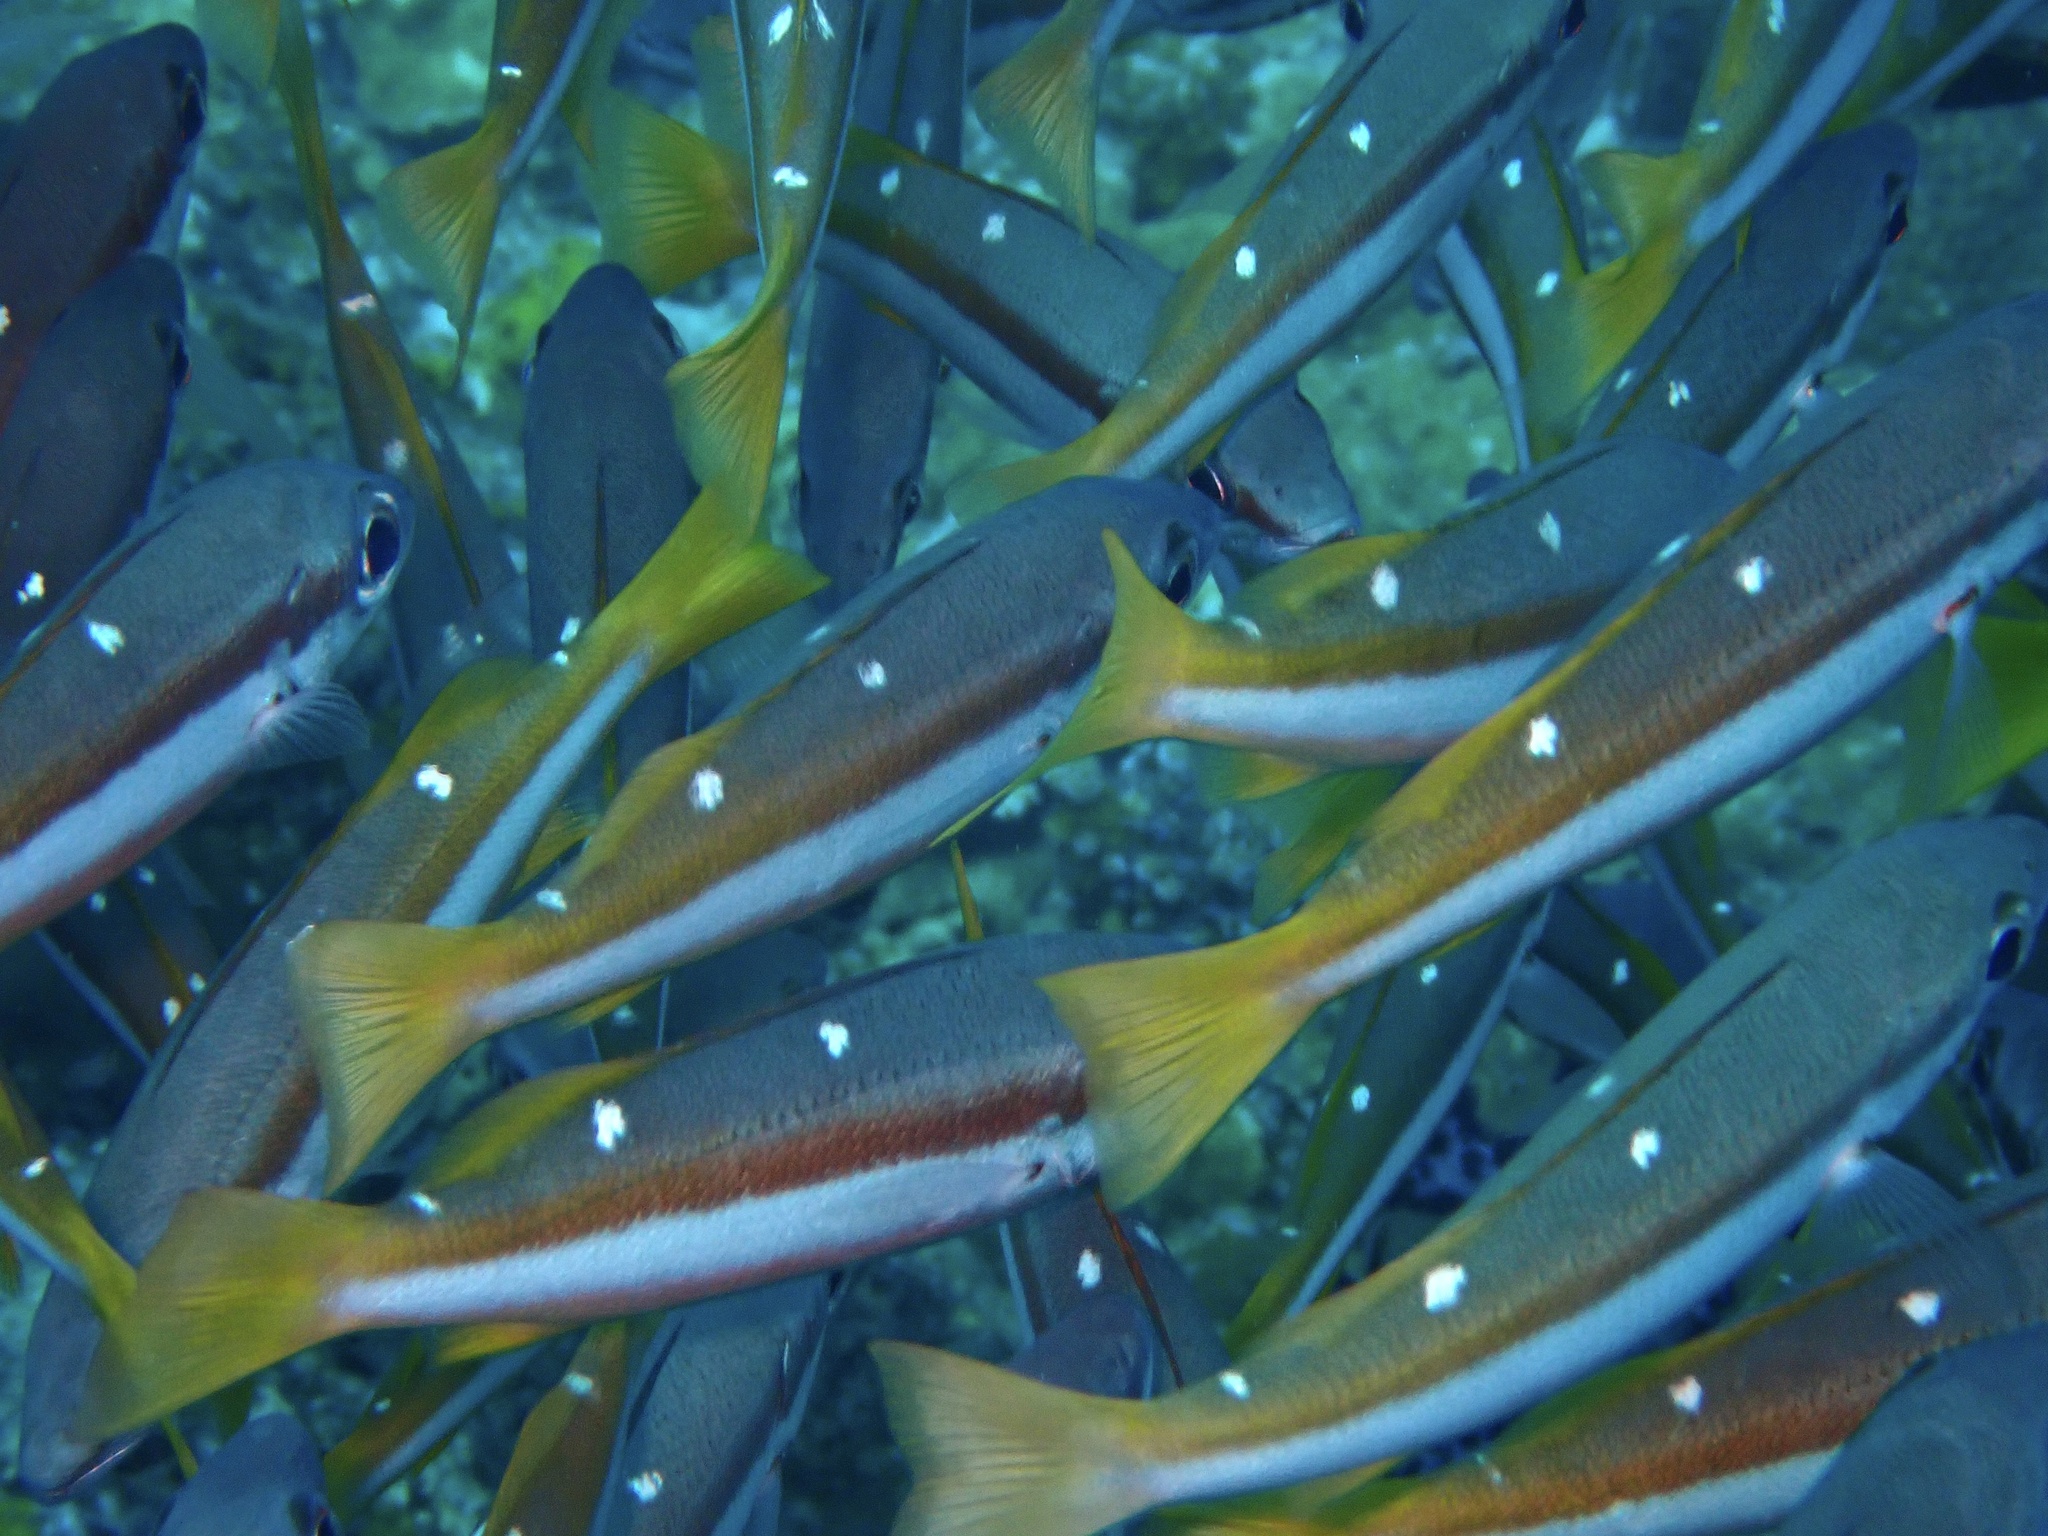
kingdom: Animalia
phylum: Chordata
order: Perciformes
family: Lutjanidae
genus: Lutjanus
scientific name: Lutjanus biguttatus
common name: Two-spot snapper
